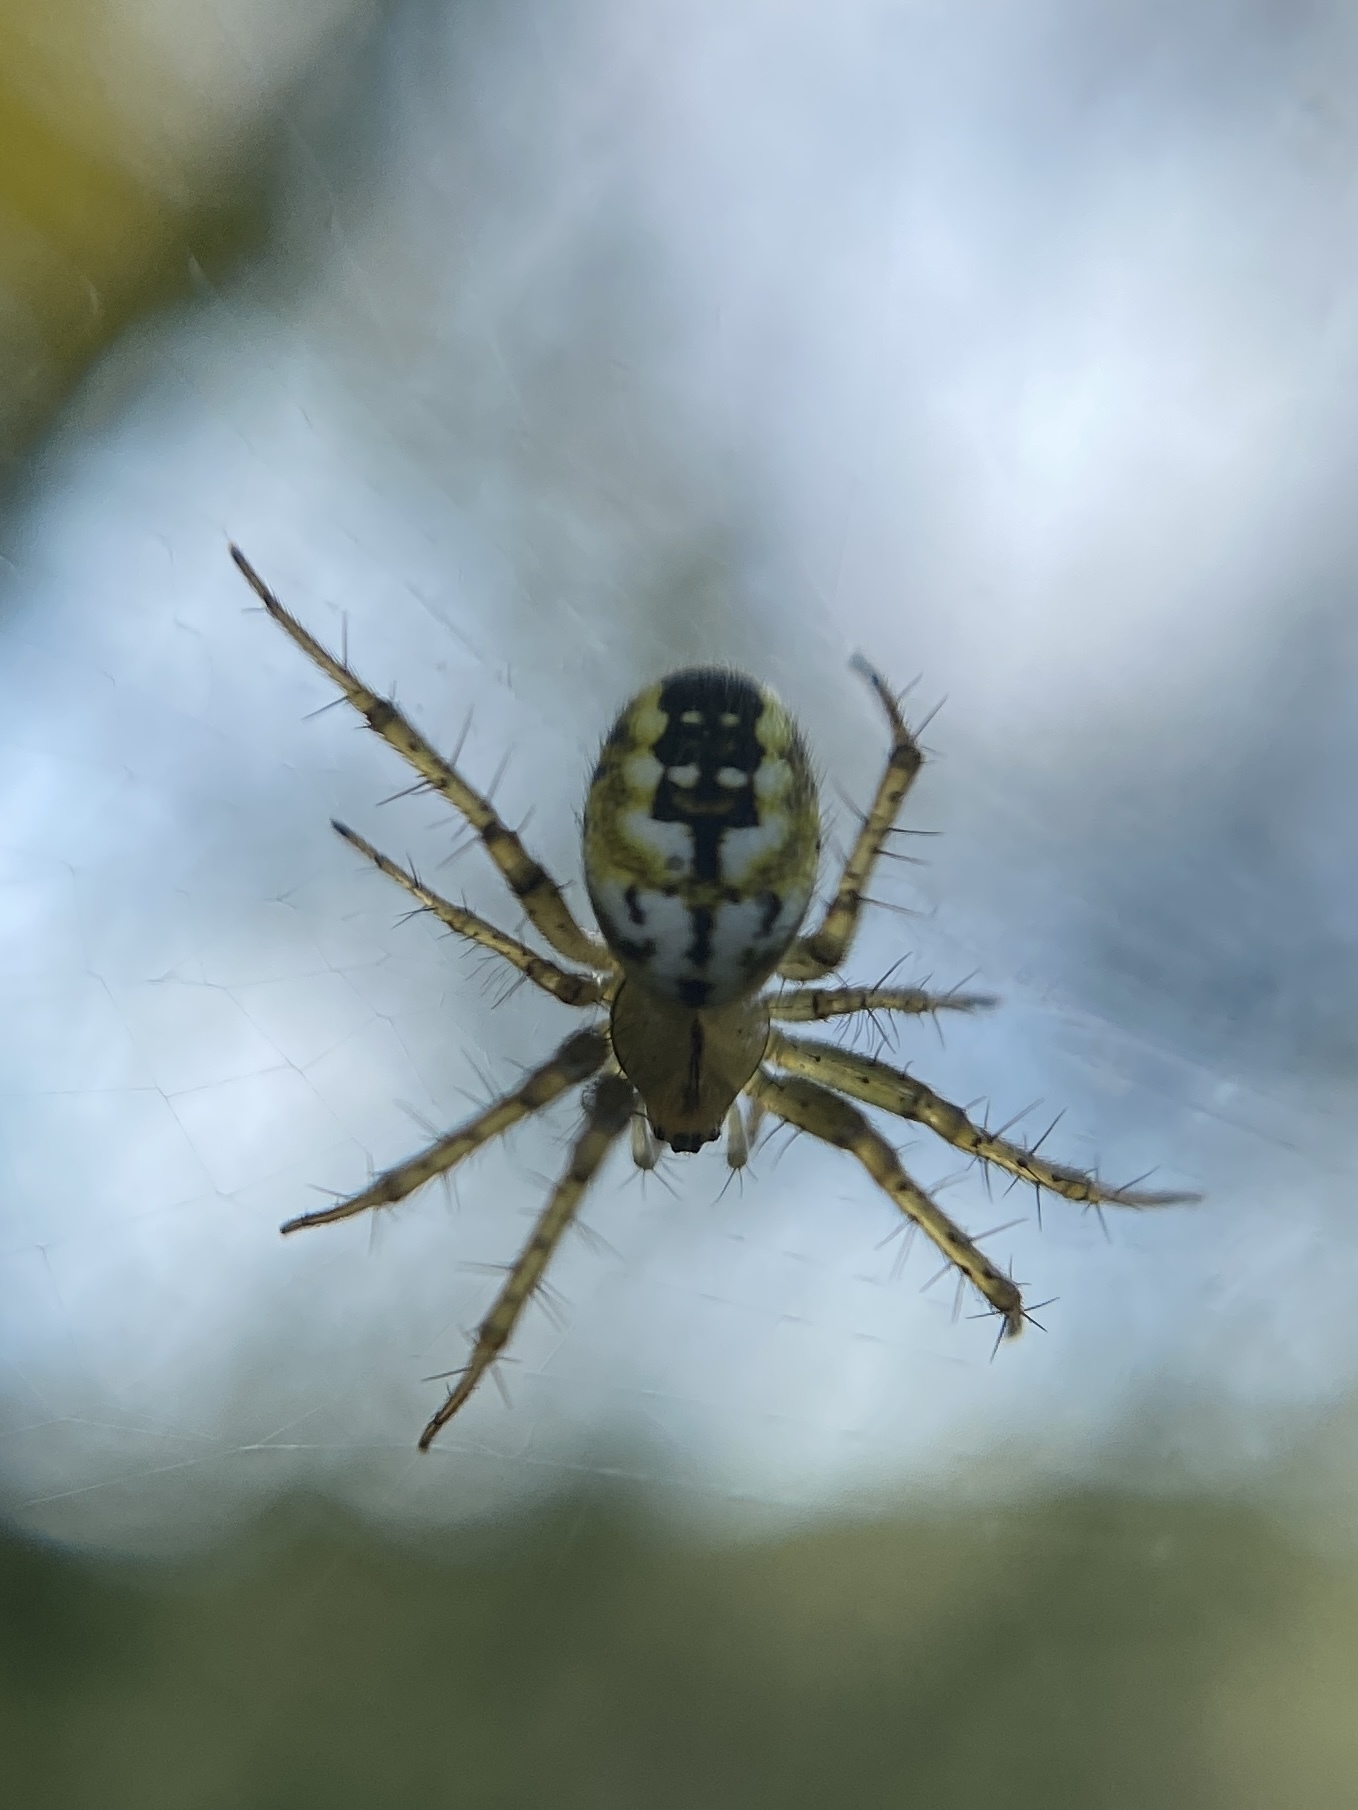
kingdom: Animalia
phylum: Arthropoda
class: Arachnida
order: Araneae
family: Araneidae
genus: Mangora
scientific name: Mangora acalypha
